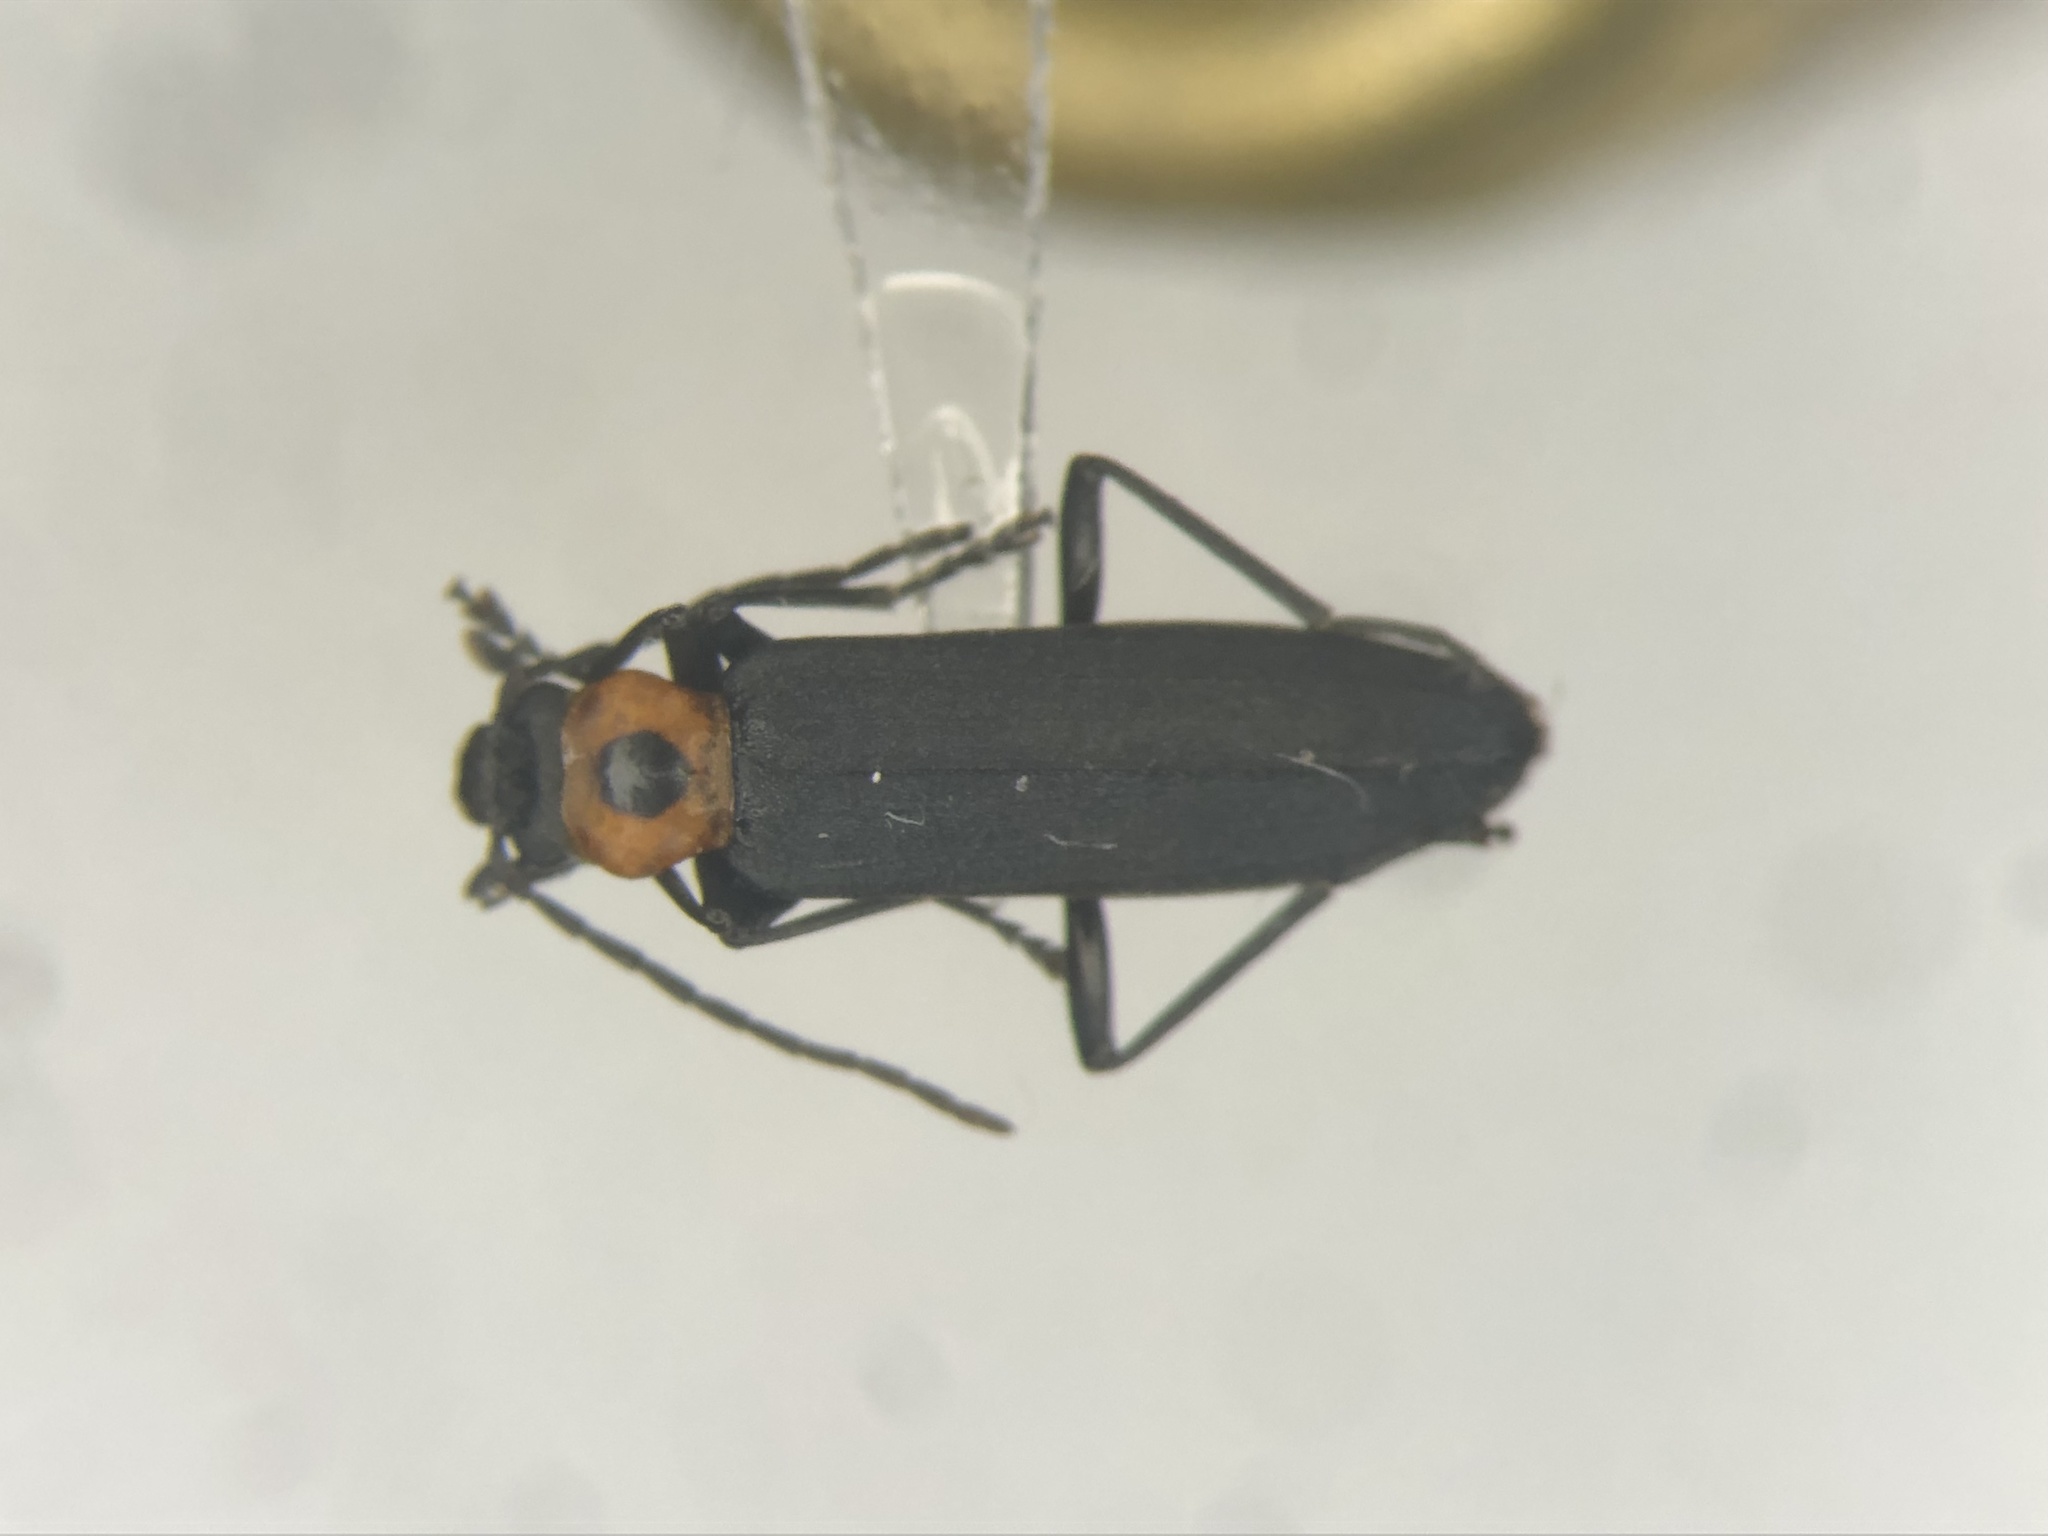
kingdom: Animalia
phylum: Arthropoda
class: Insecta
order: Coleoptera
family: Oedemeridae
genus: Ischnomera
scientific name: Ischnomera
